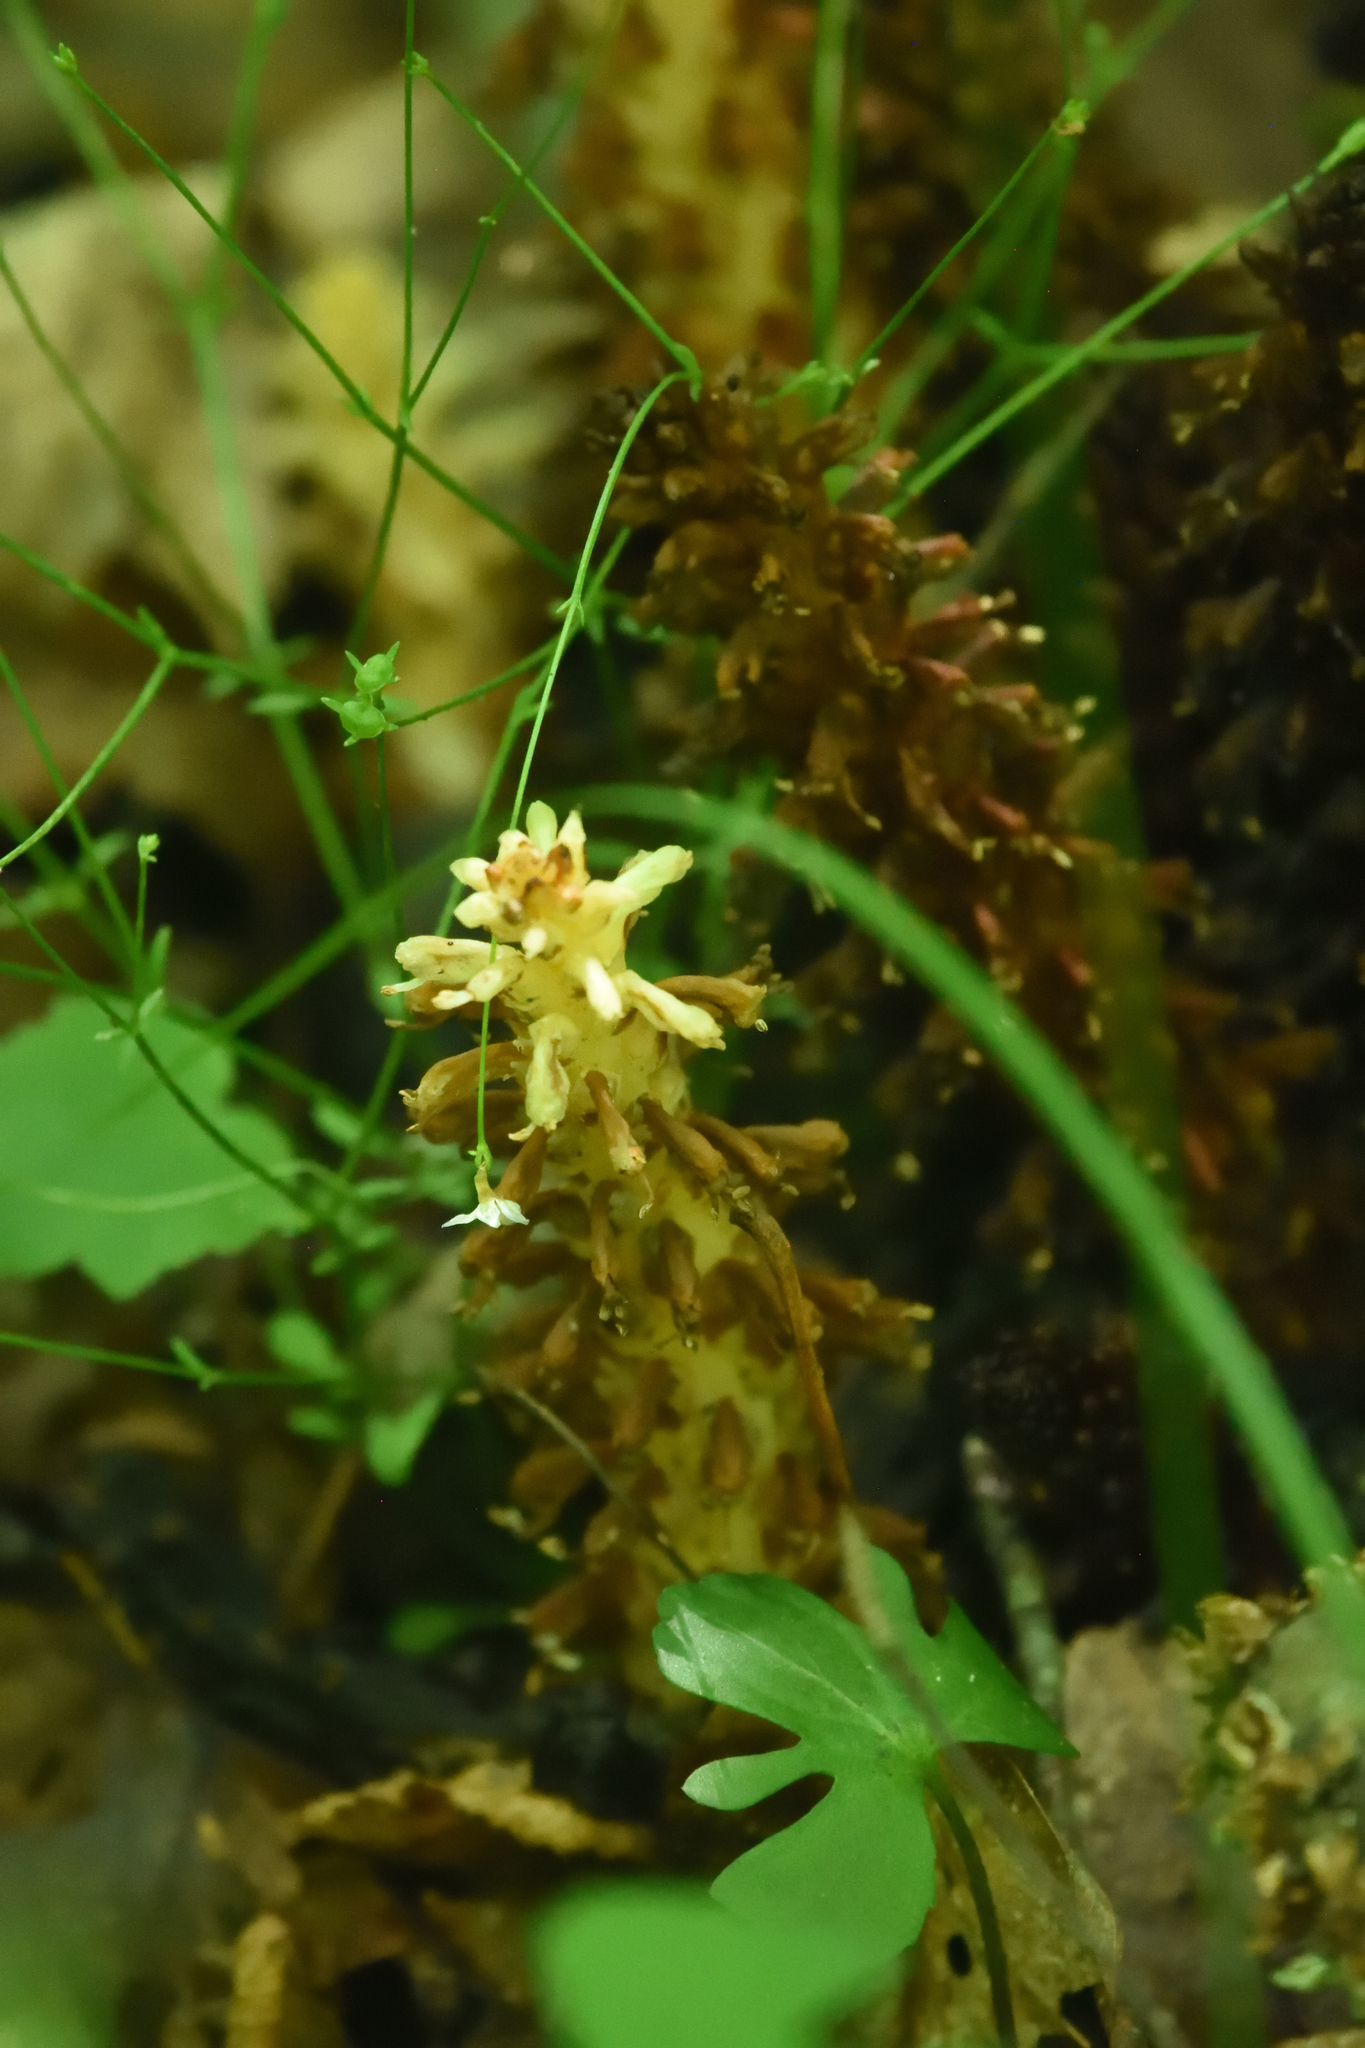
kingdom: Plantae
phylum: Tracheophyta
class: Magnoliopsida
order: Lamiales
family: Orobanchaceae
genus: Conopholis
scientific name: Conopholis americana
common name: American cancer-root
